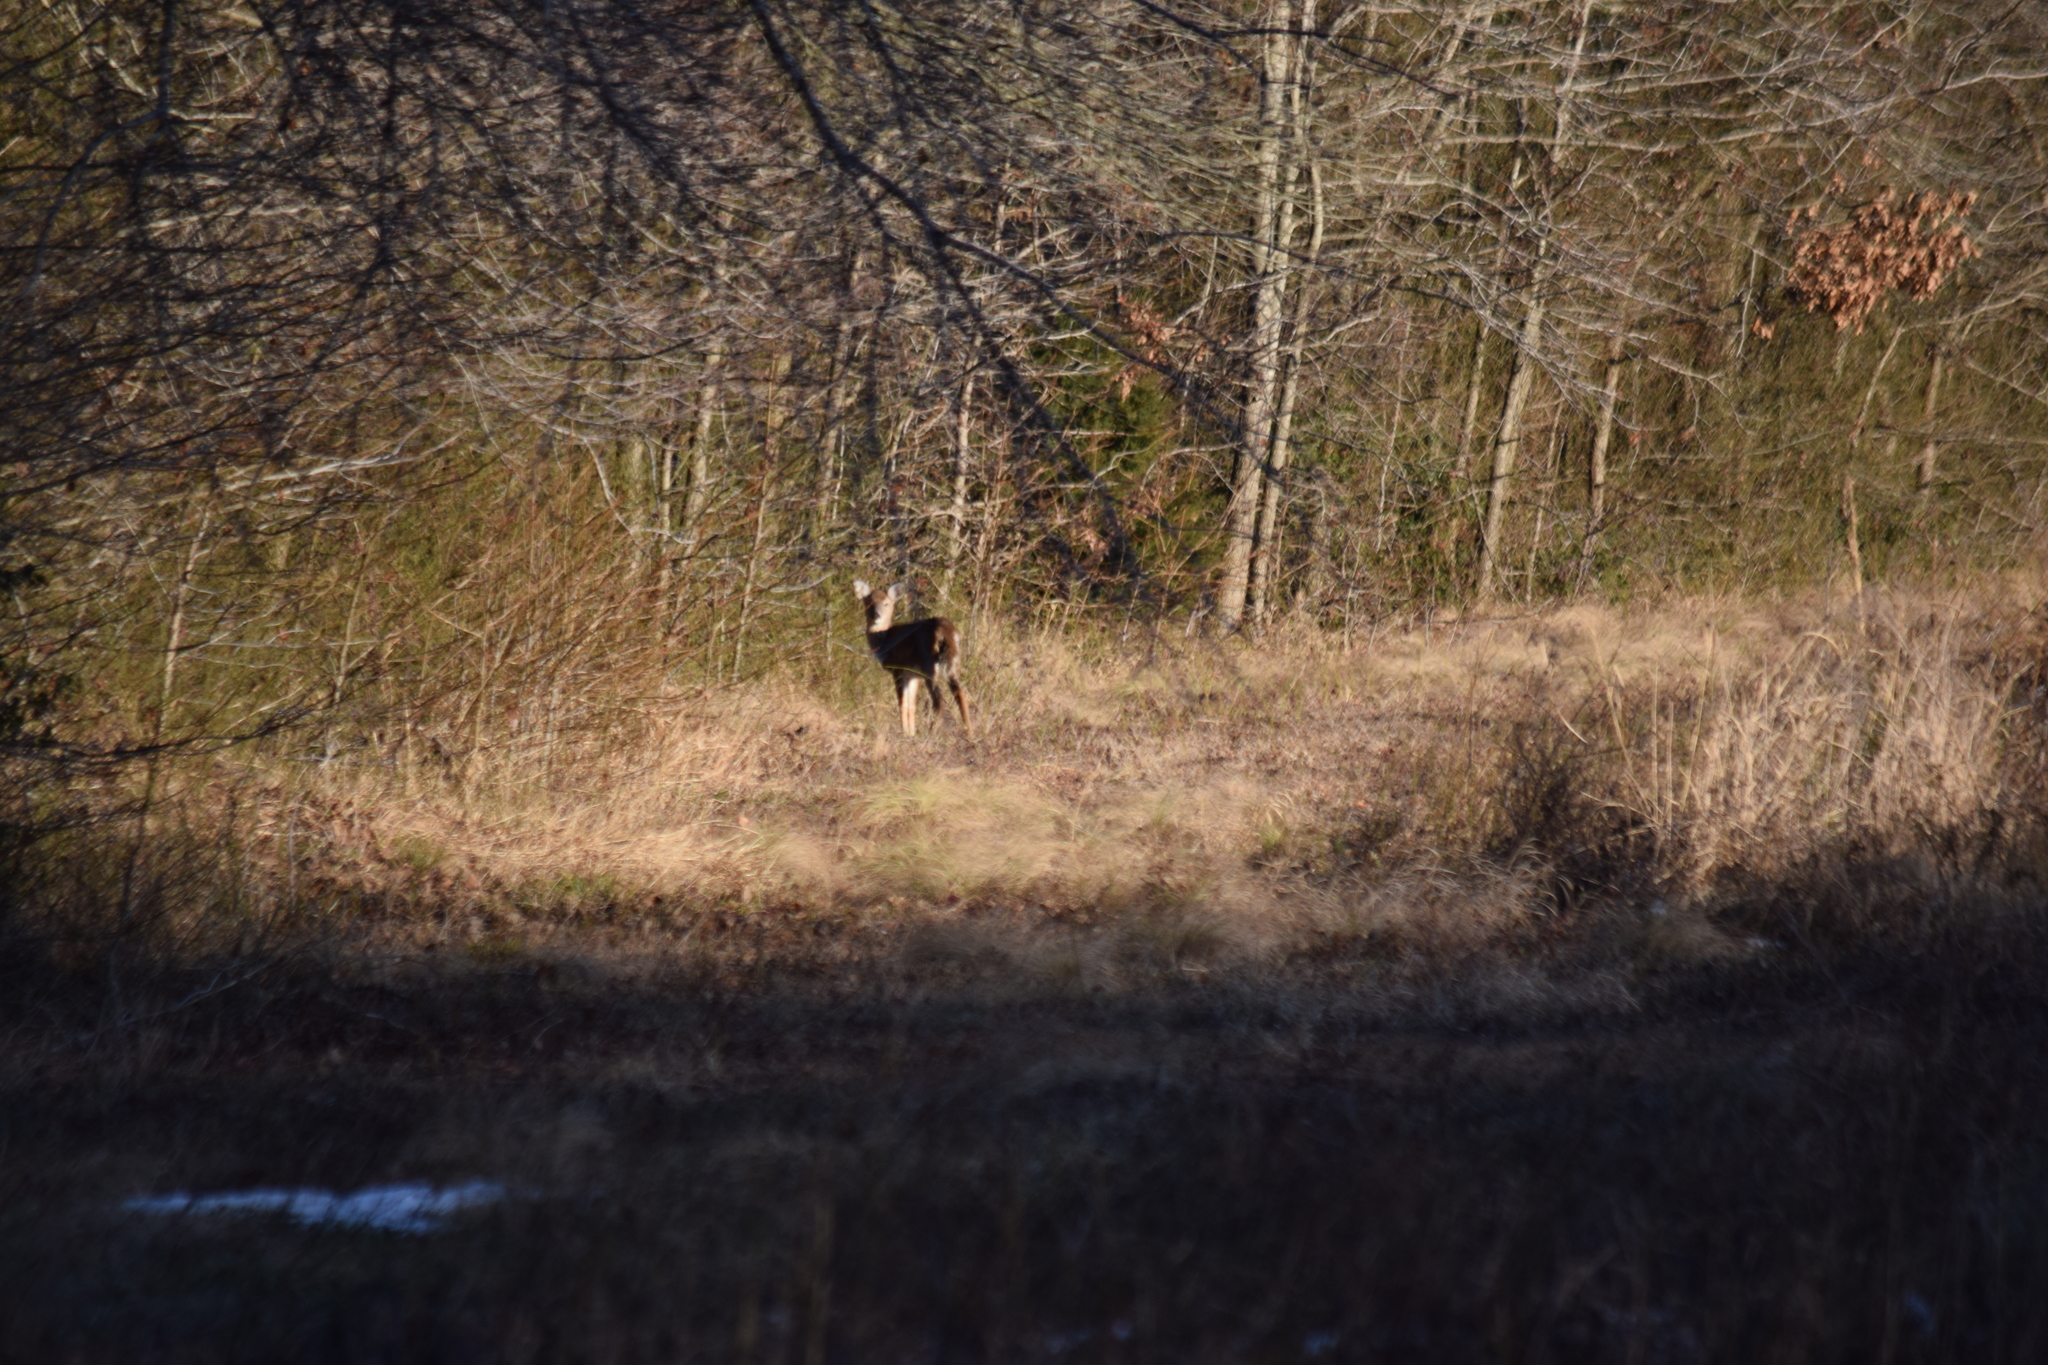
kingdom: Animalia
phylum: Chordata
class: Mammalia
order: Artiodactyla
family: Cervidae
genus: Odocoileus
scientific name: Odocoileus virginianus
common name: White-tailed deer
